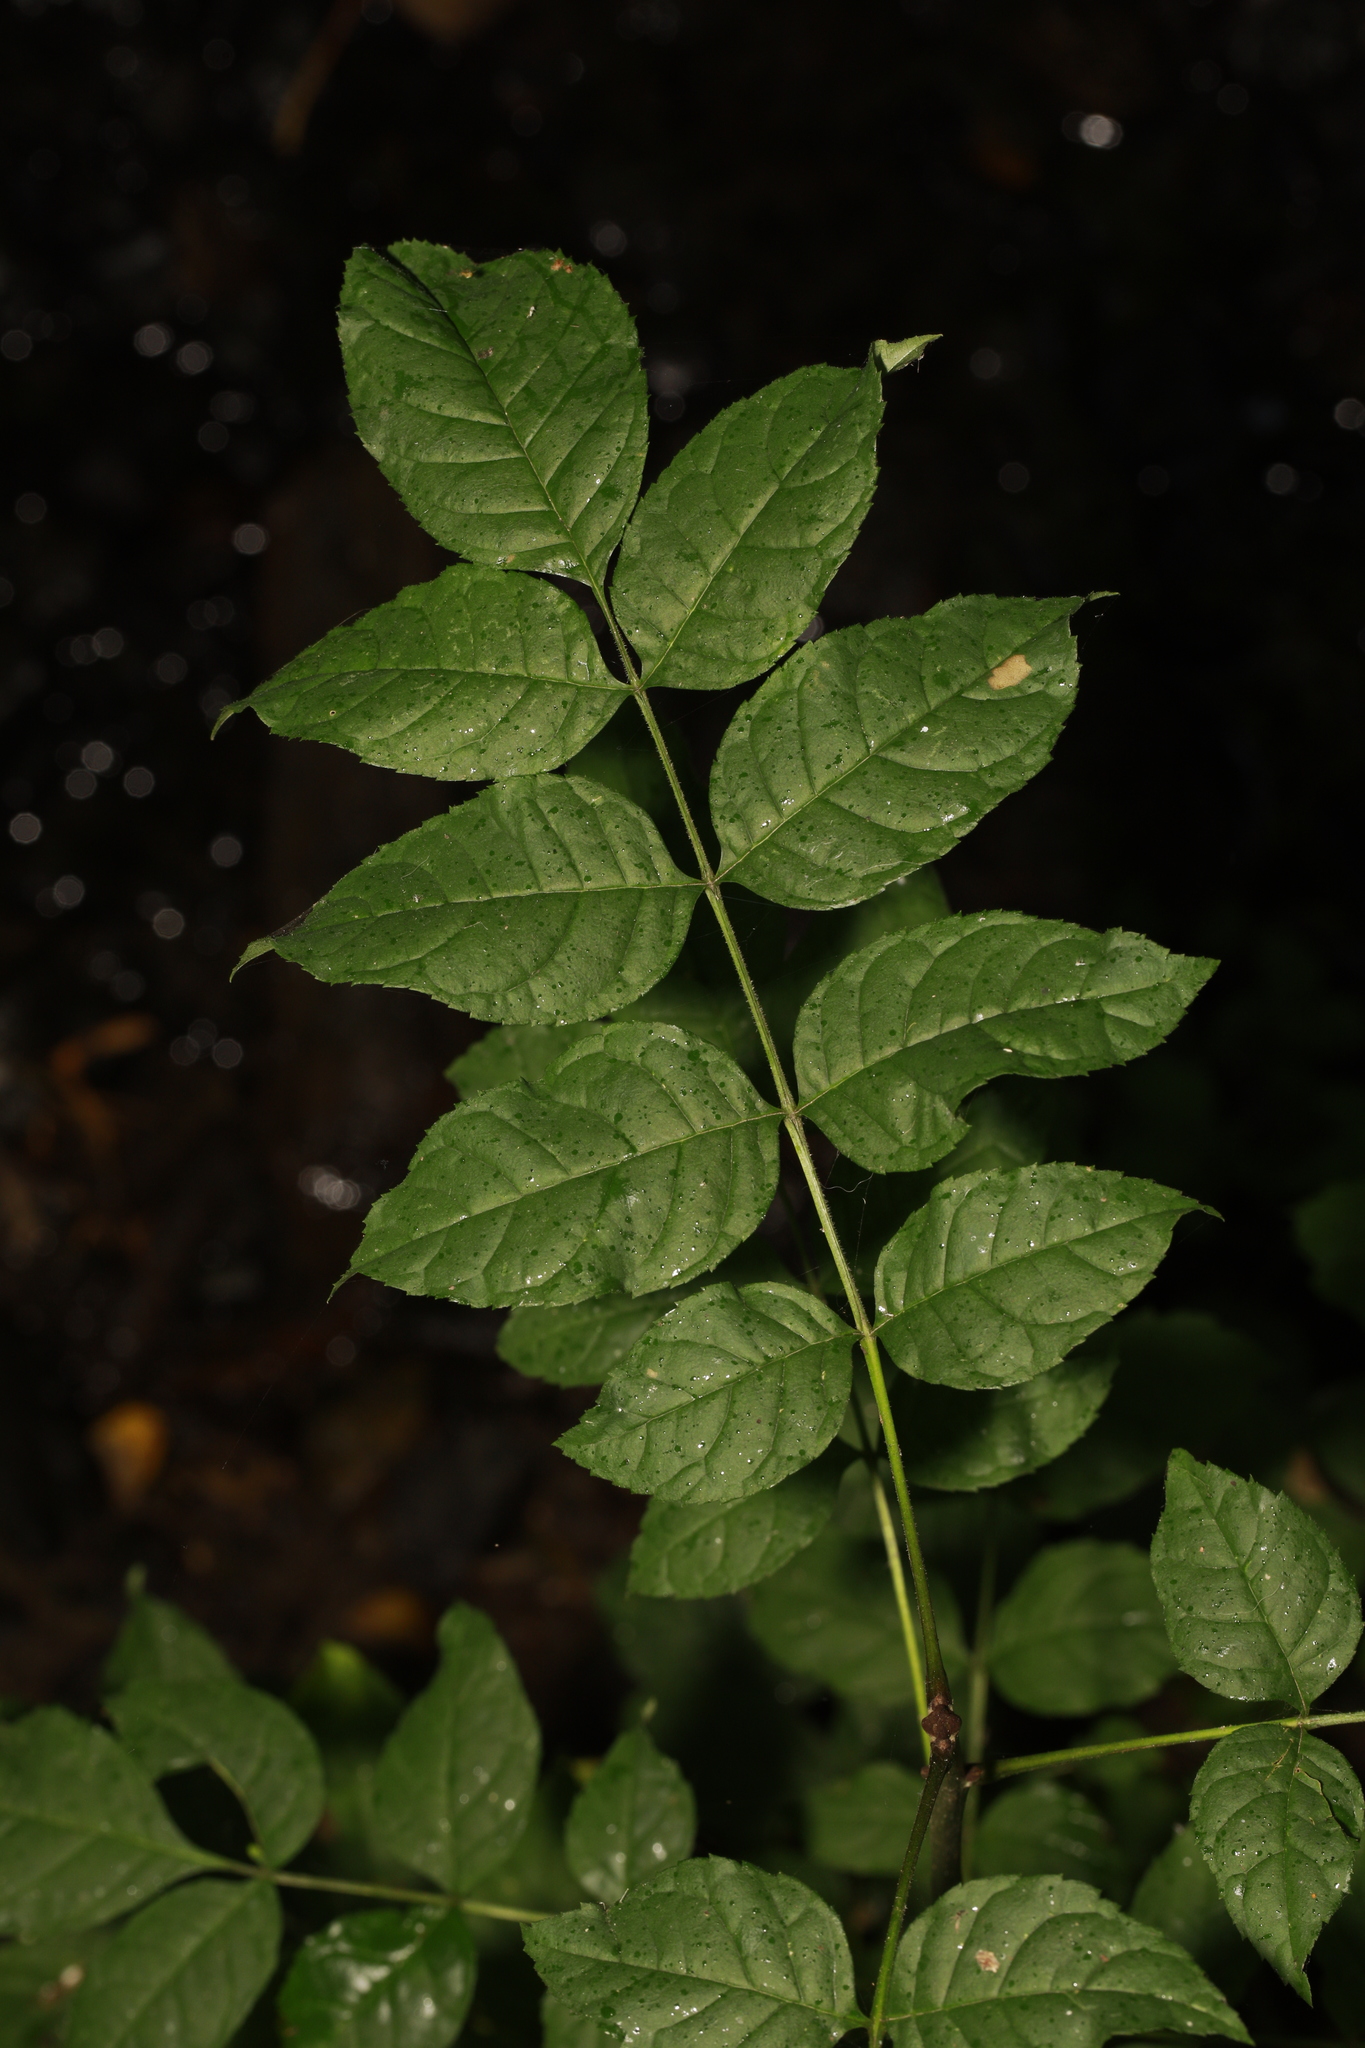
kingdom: Plantae
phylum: Tracheophyta
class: Magnoliopsida
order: Lamiales
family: Oleaceae
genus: Fraxinus
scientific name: Fraxinus excelsior
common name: European ash
